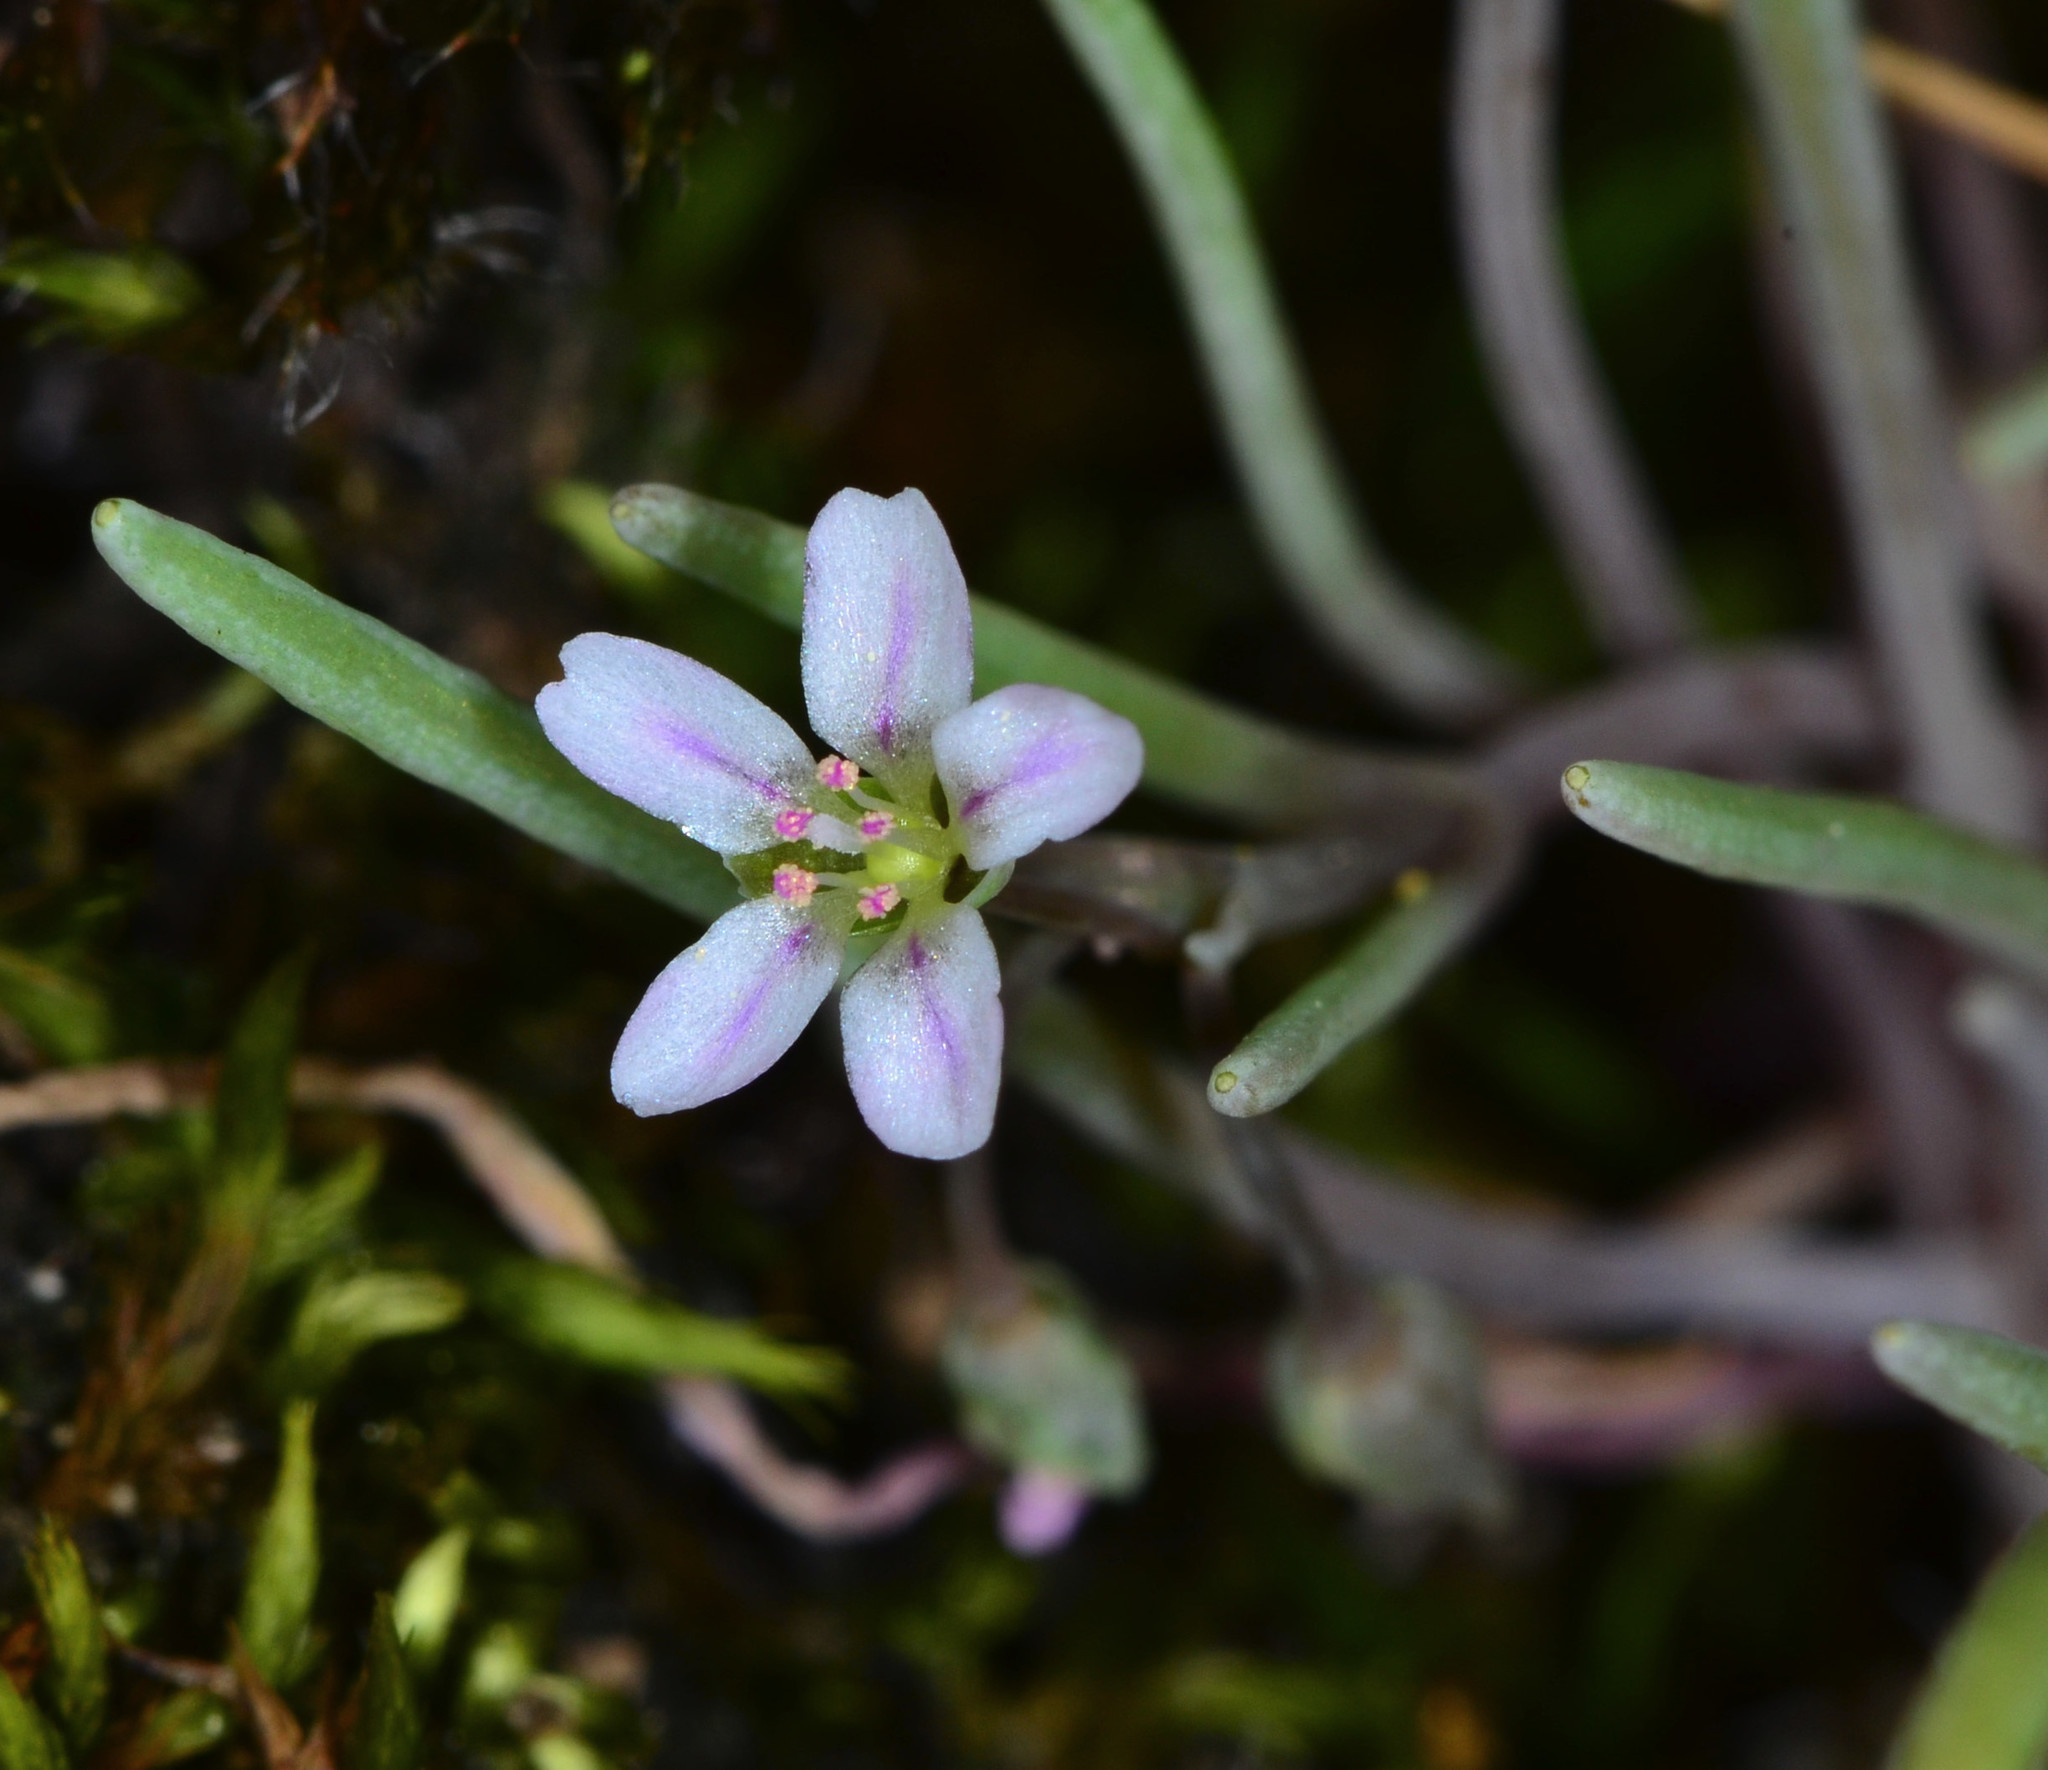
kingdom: Plantae
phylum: Tracheophyta
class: Magnoliopsida
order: Caryophyllales
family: Montiaceae
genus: Claytonia
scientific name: Claytonia exigua
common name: Pale spring beauty
